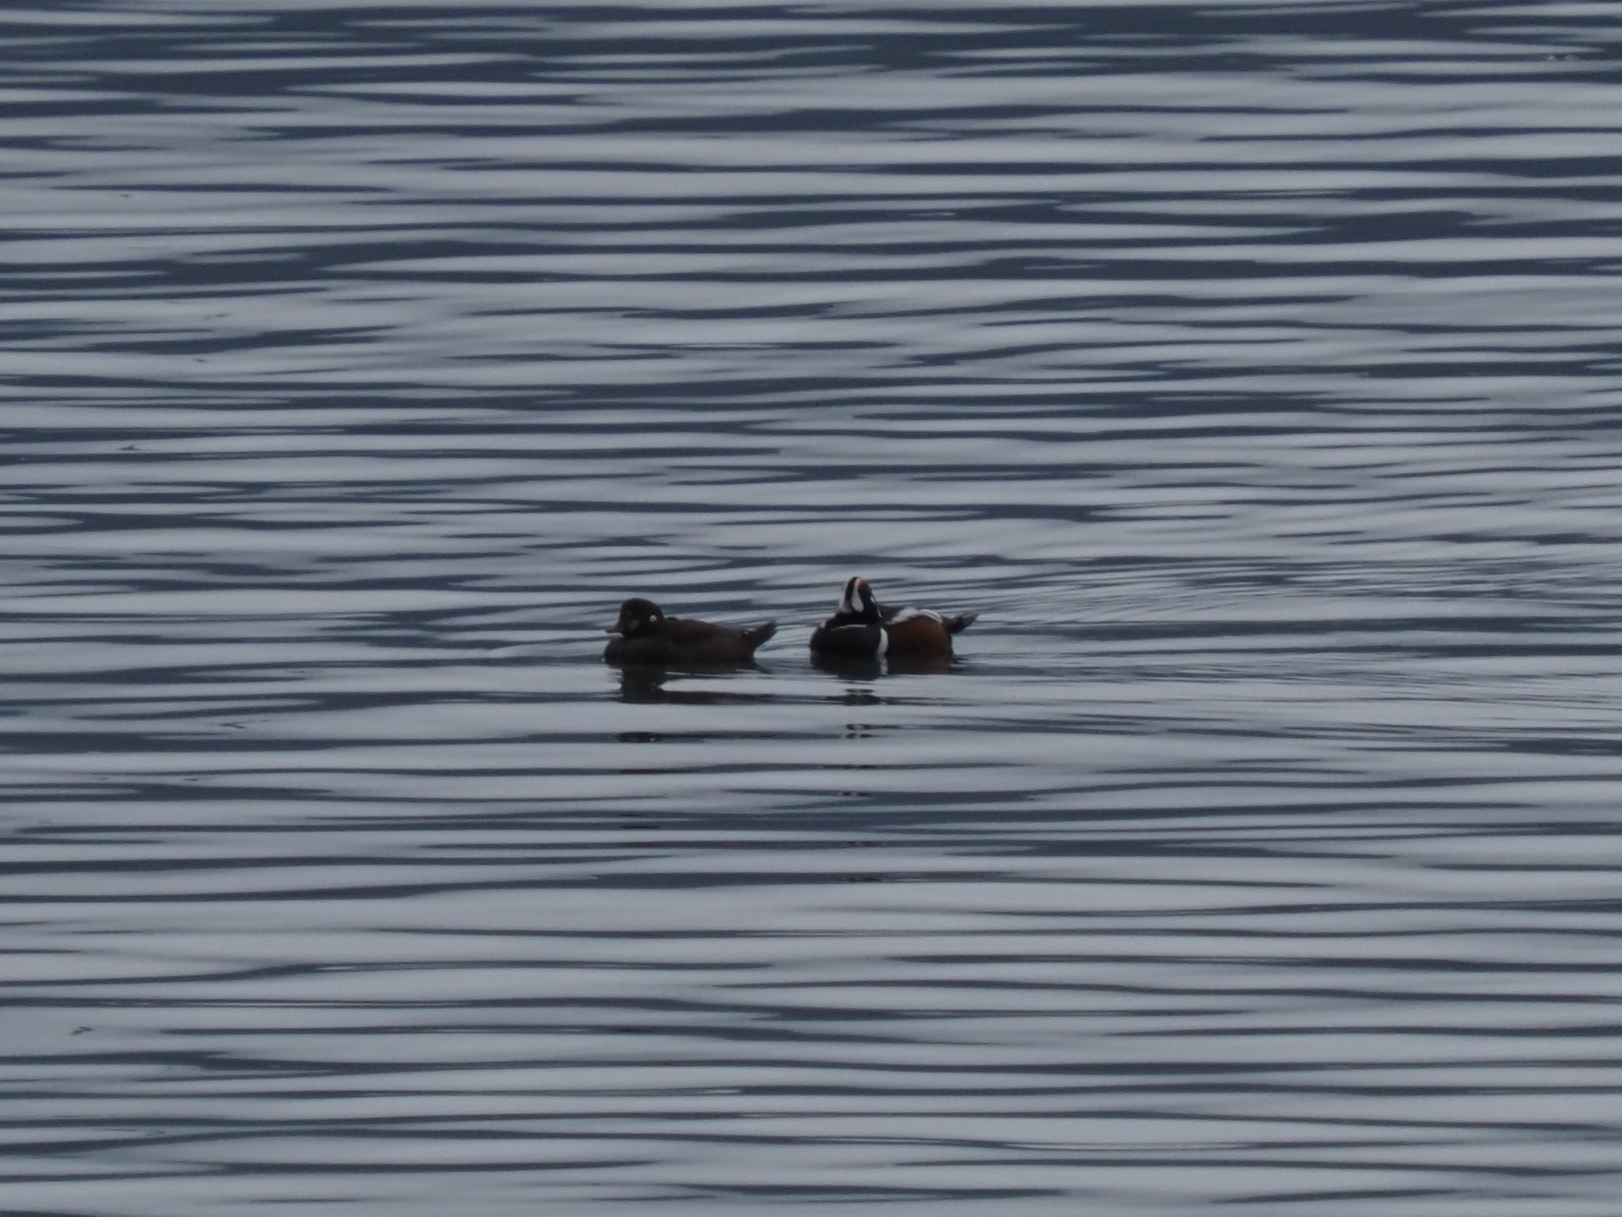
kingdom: Animalia
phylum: Chordata
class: Aves
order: Anseriformes
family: Anatidae
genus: Histrionicus
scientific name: Histrionicus histrionicus
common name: Harlequin duck
